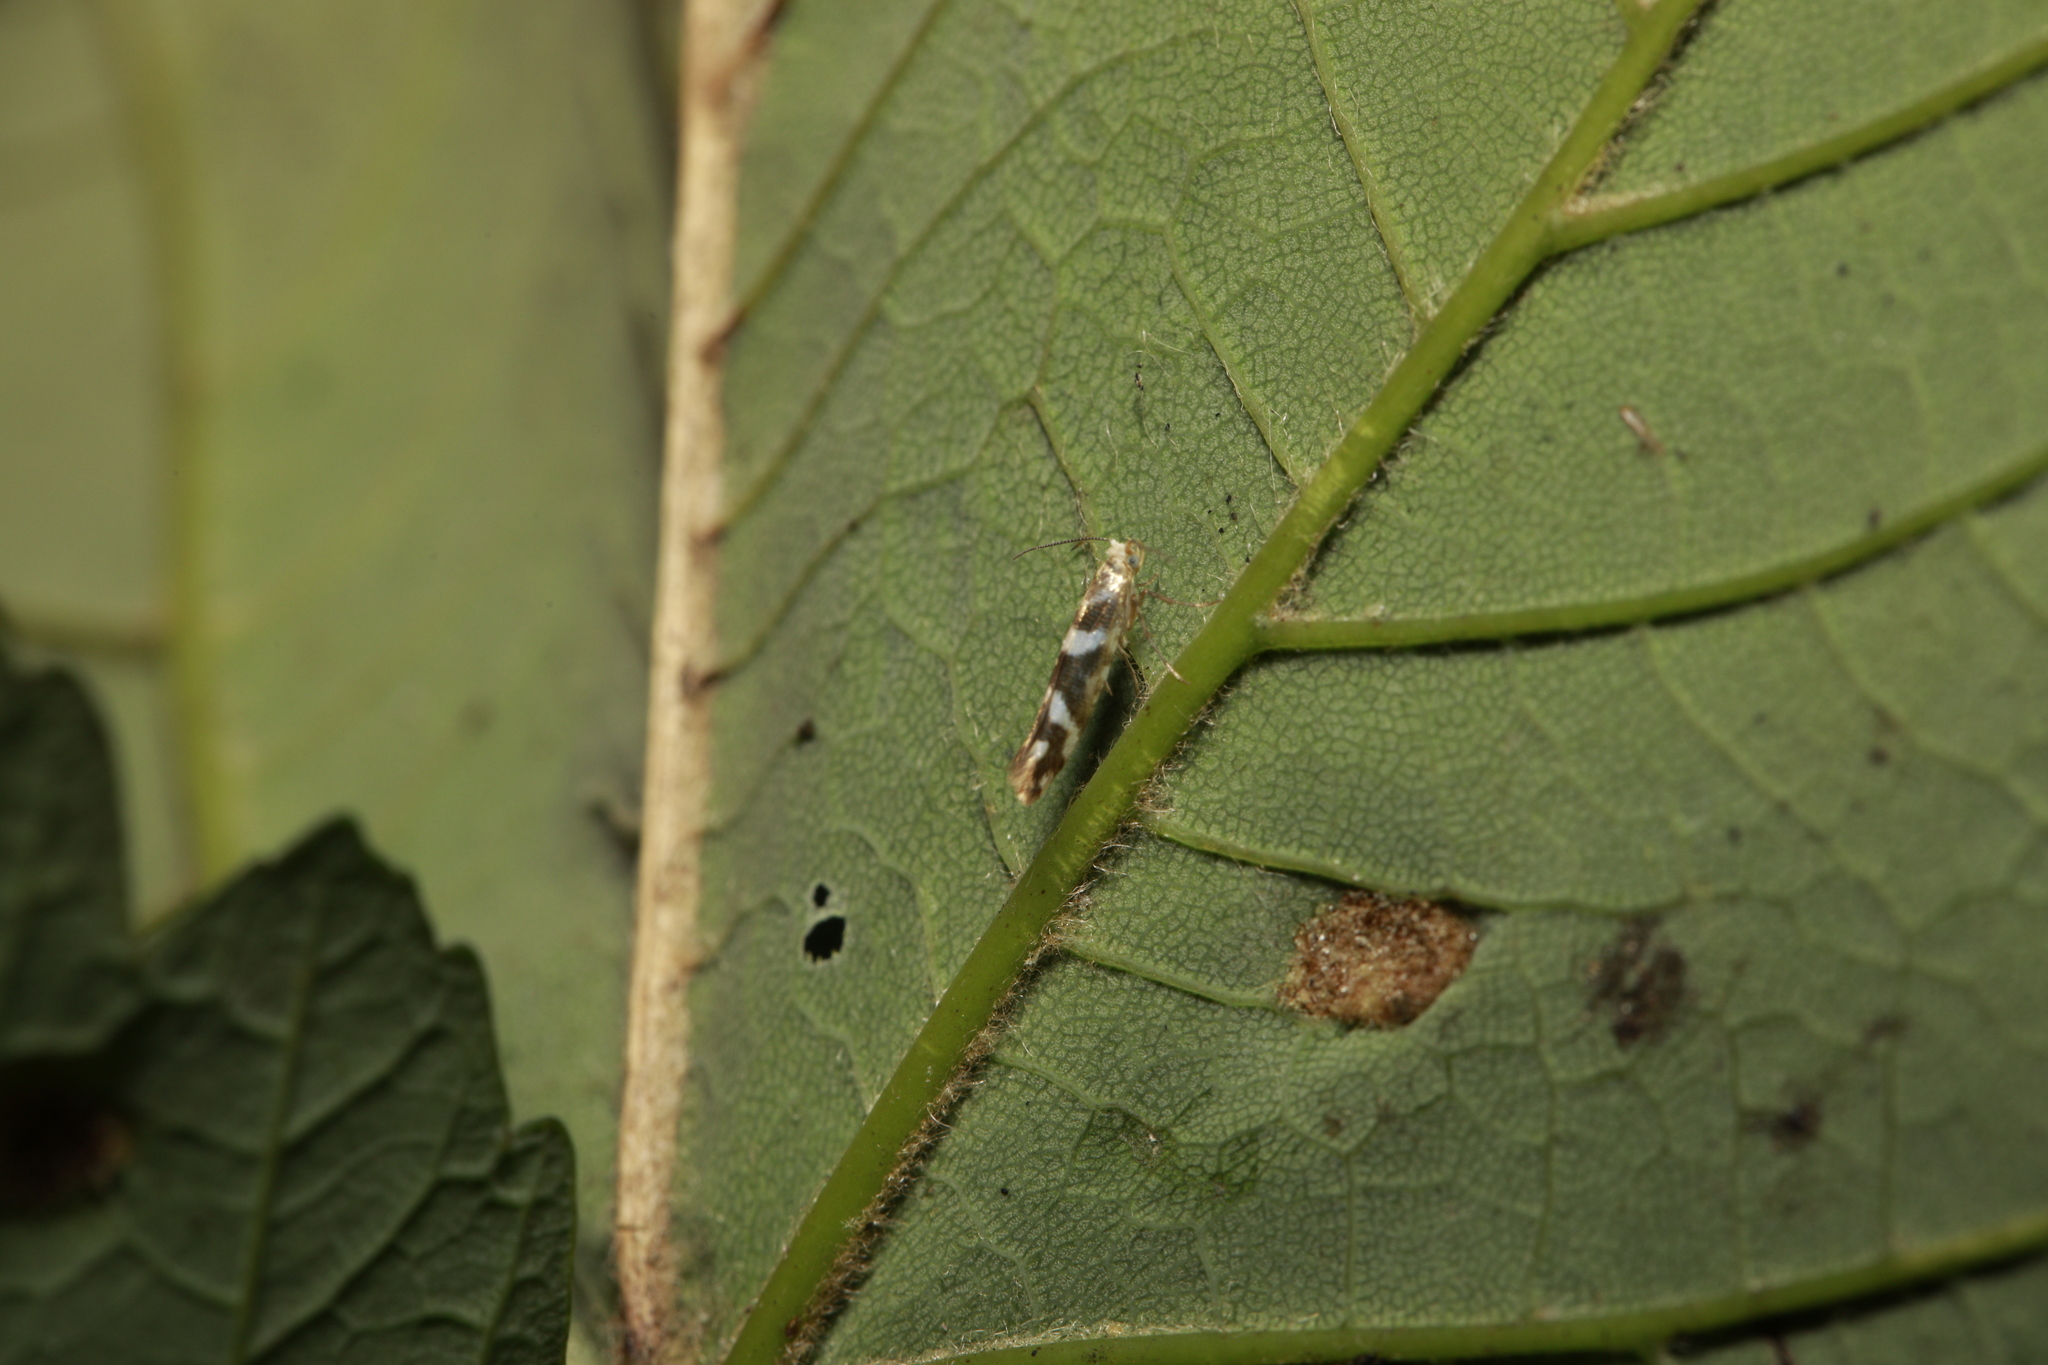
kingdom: Animalia
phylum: Arthropoda
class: Insecta
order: Lepidoptera
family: Argyresthiidae
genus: Argyresthia
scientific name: Argyresthia goedartella
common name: Golden argent
